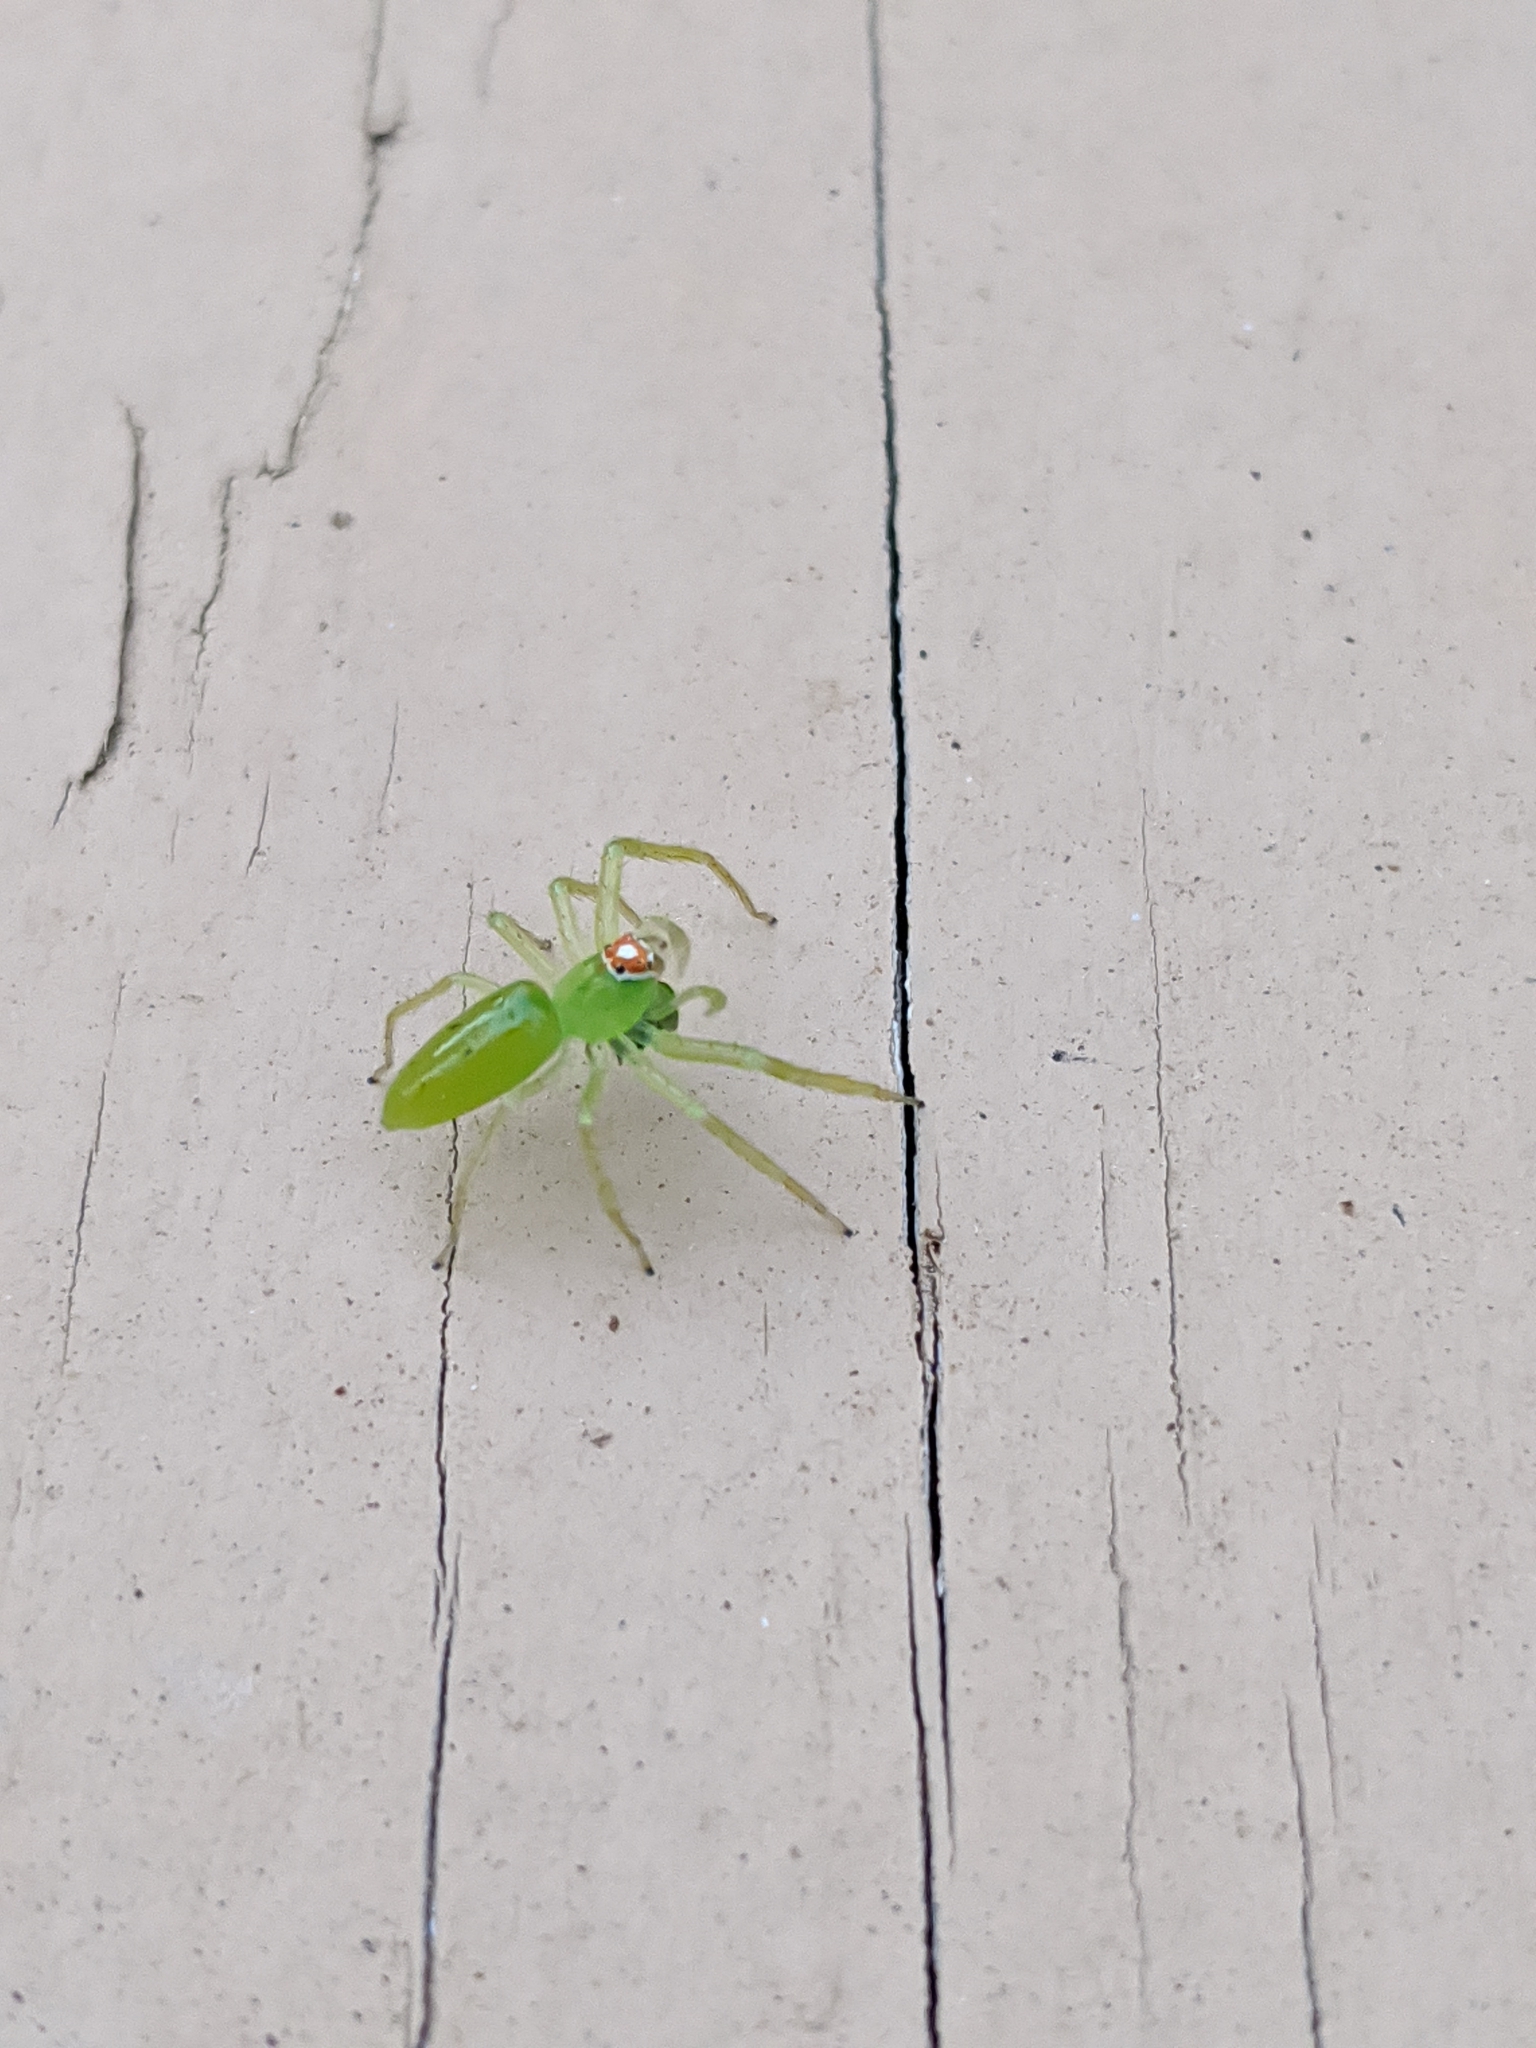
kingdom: Animalia
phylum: Arthropoda
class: Arachnida
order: Araneae
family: Salticidae
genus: Lyssomanes
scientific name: Lyssomanes viridis
